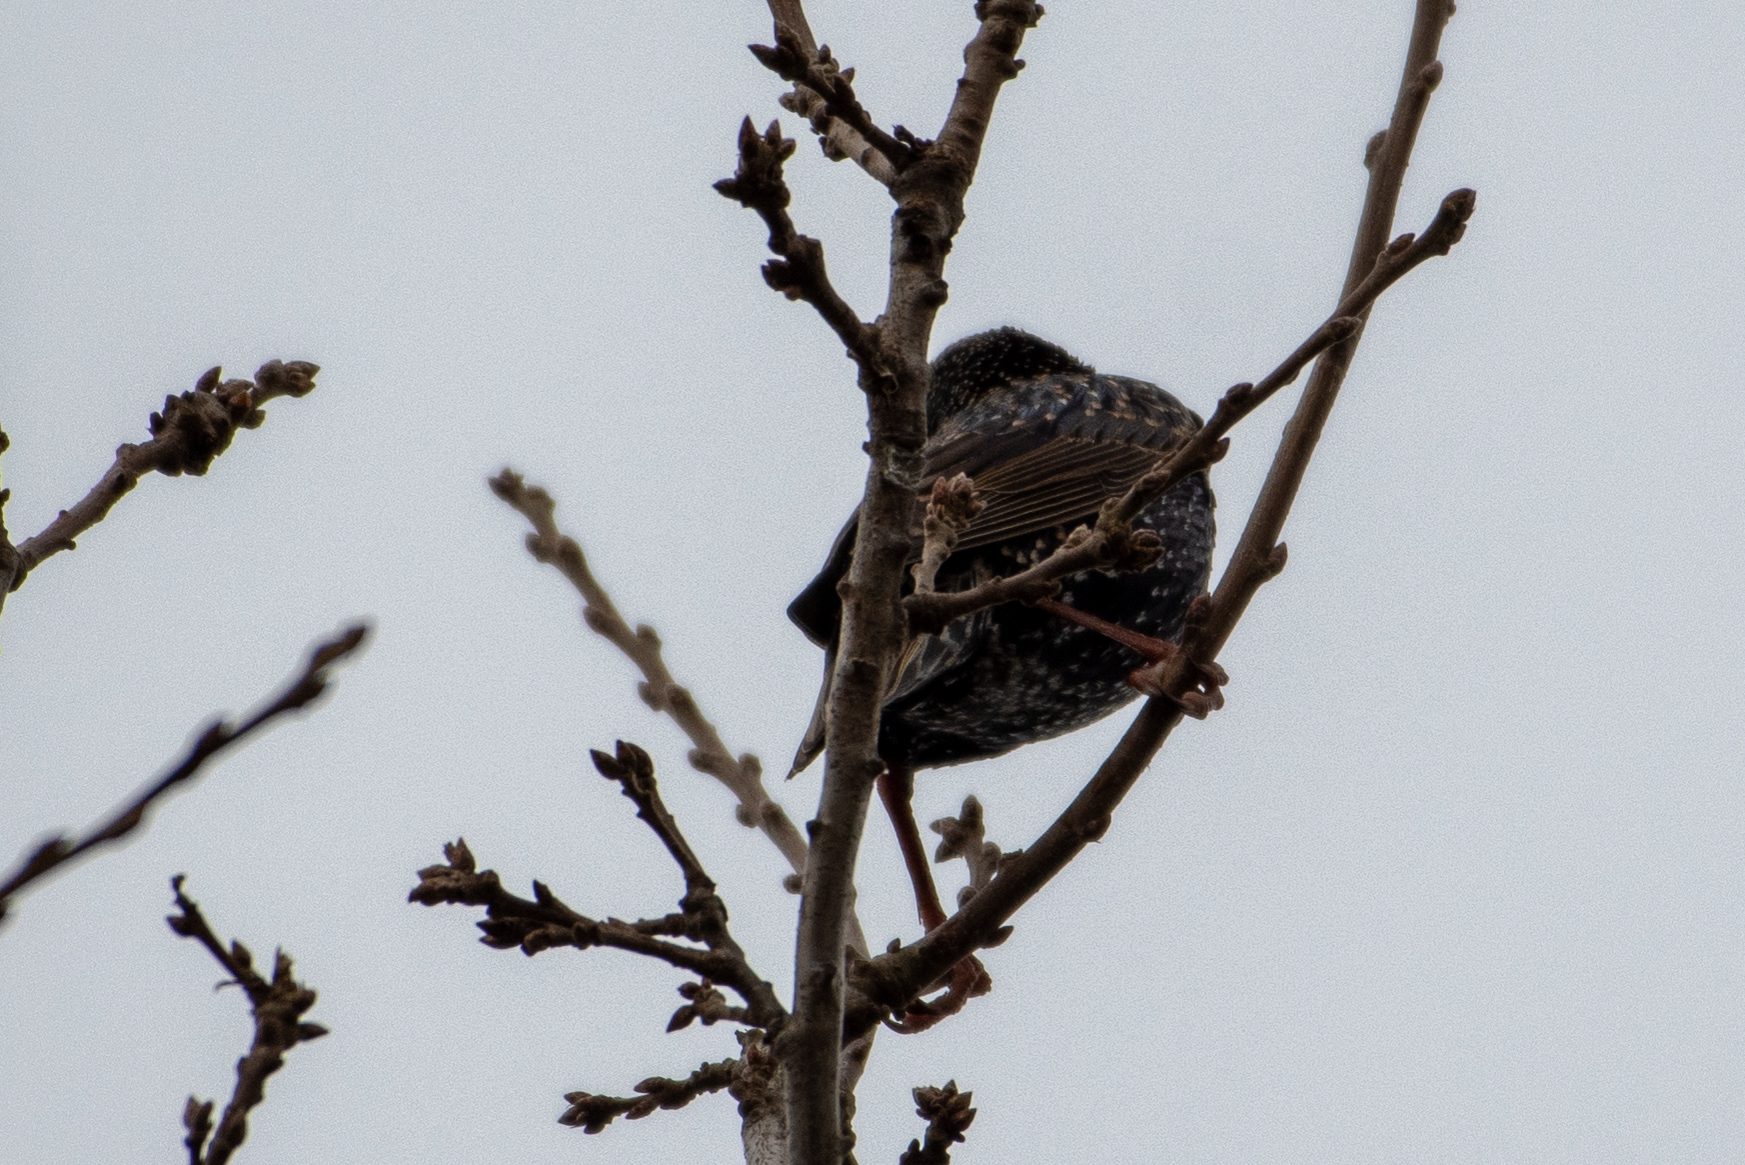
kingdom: Animalia
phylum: Chordata
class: Aves
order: Passeriformes
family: Sturnidae
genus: Sturnus
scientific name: Sturnus vulgaris
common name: Common starling
